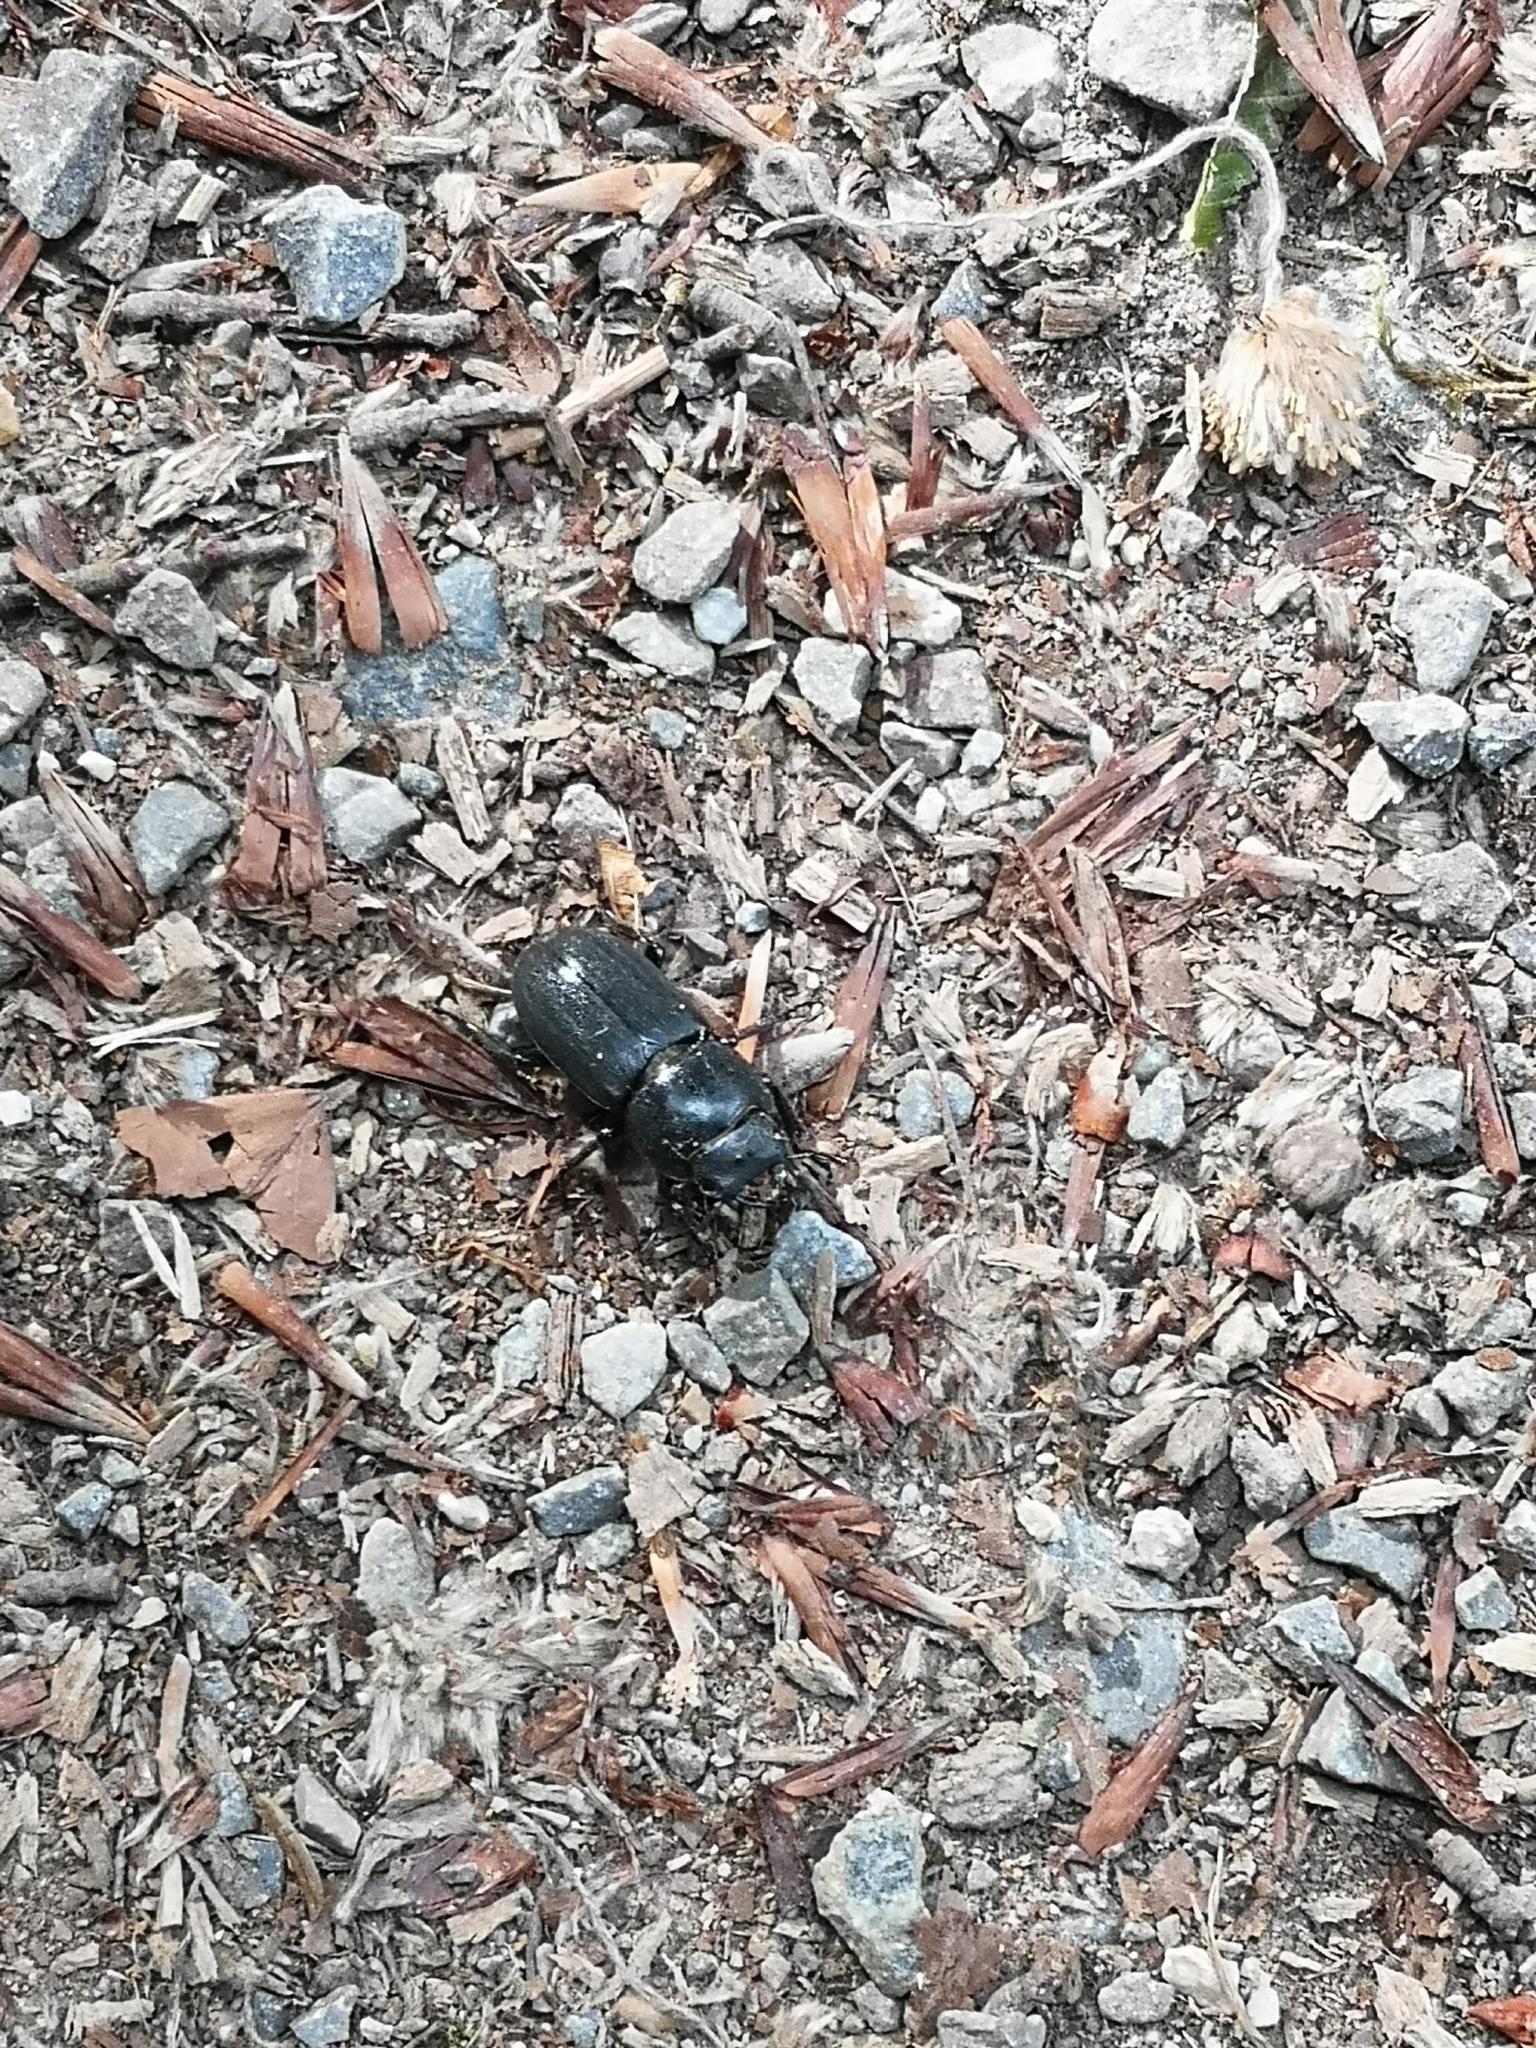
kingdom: Animalia
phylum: Arthropoda
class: Insecta
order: Coleoptera
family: Lucanidae
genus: Dorcus
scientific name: Dorcus parallelipipedus
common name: Lesser stag beetle
